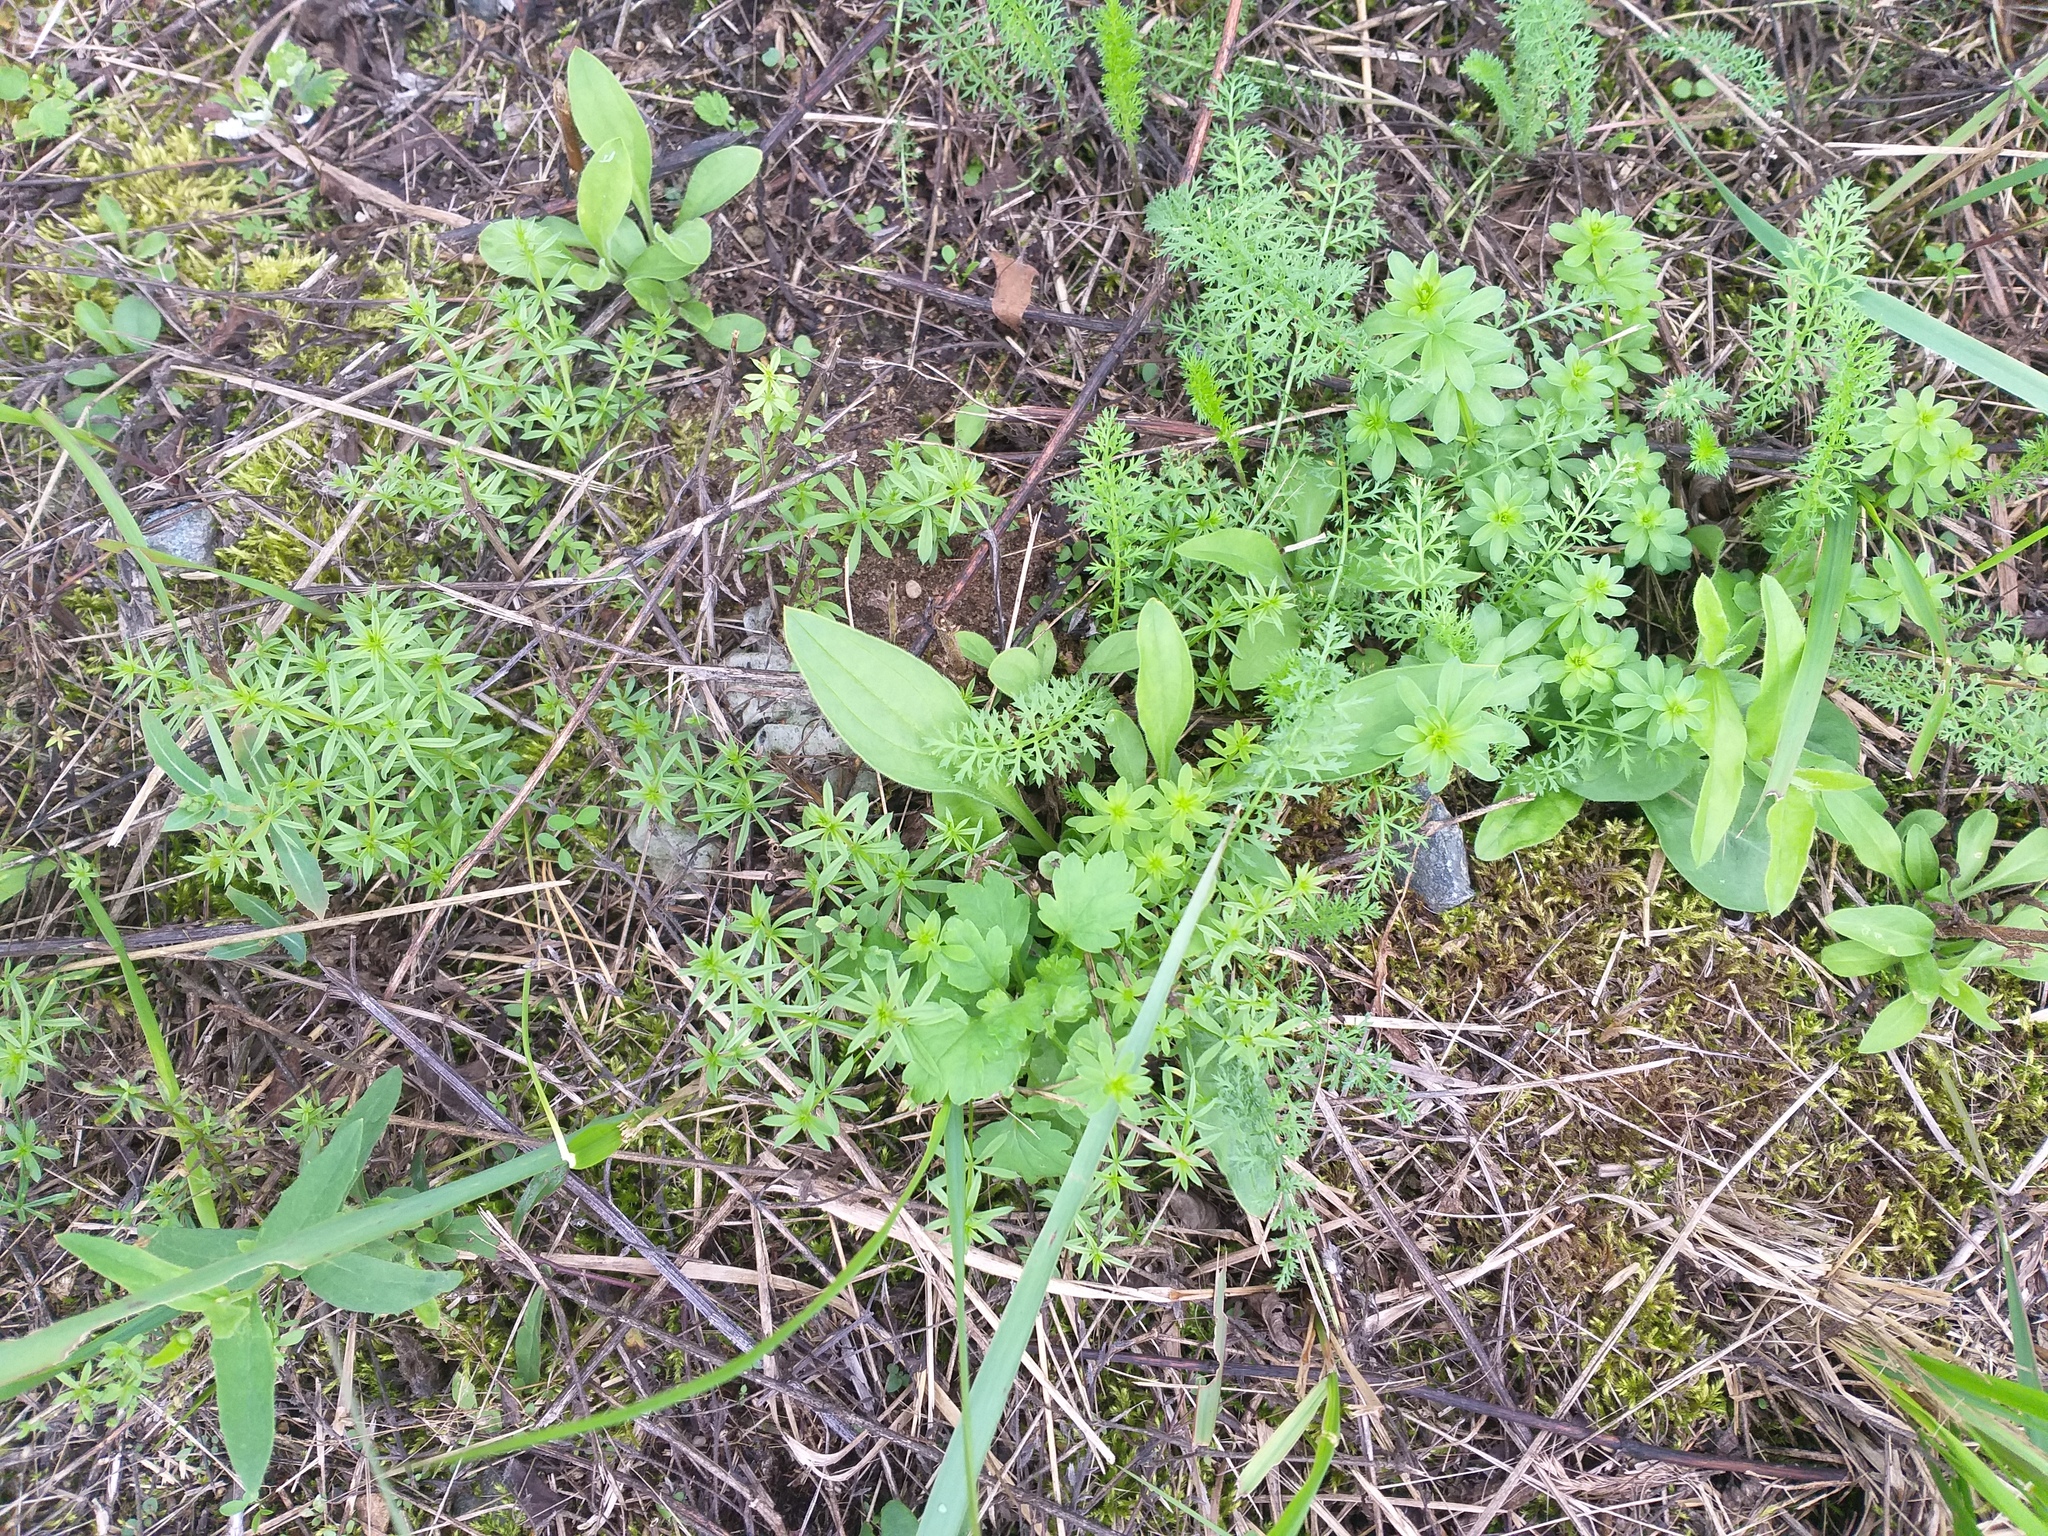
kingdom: Plantae
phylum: Tracheophyta
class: Magnoliopsida
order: Gentianales
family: Rubiaceae
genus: Galium
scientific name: Galium mollugo
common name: Hedge bedstraw
